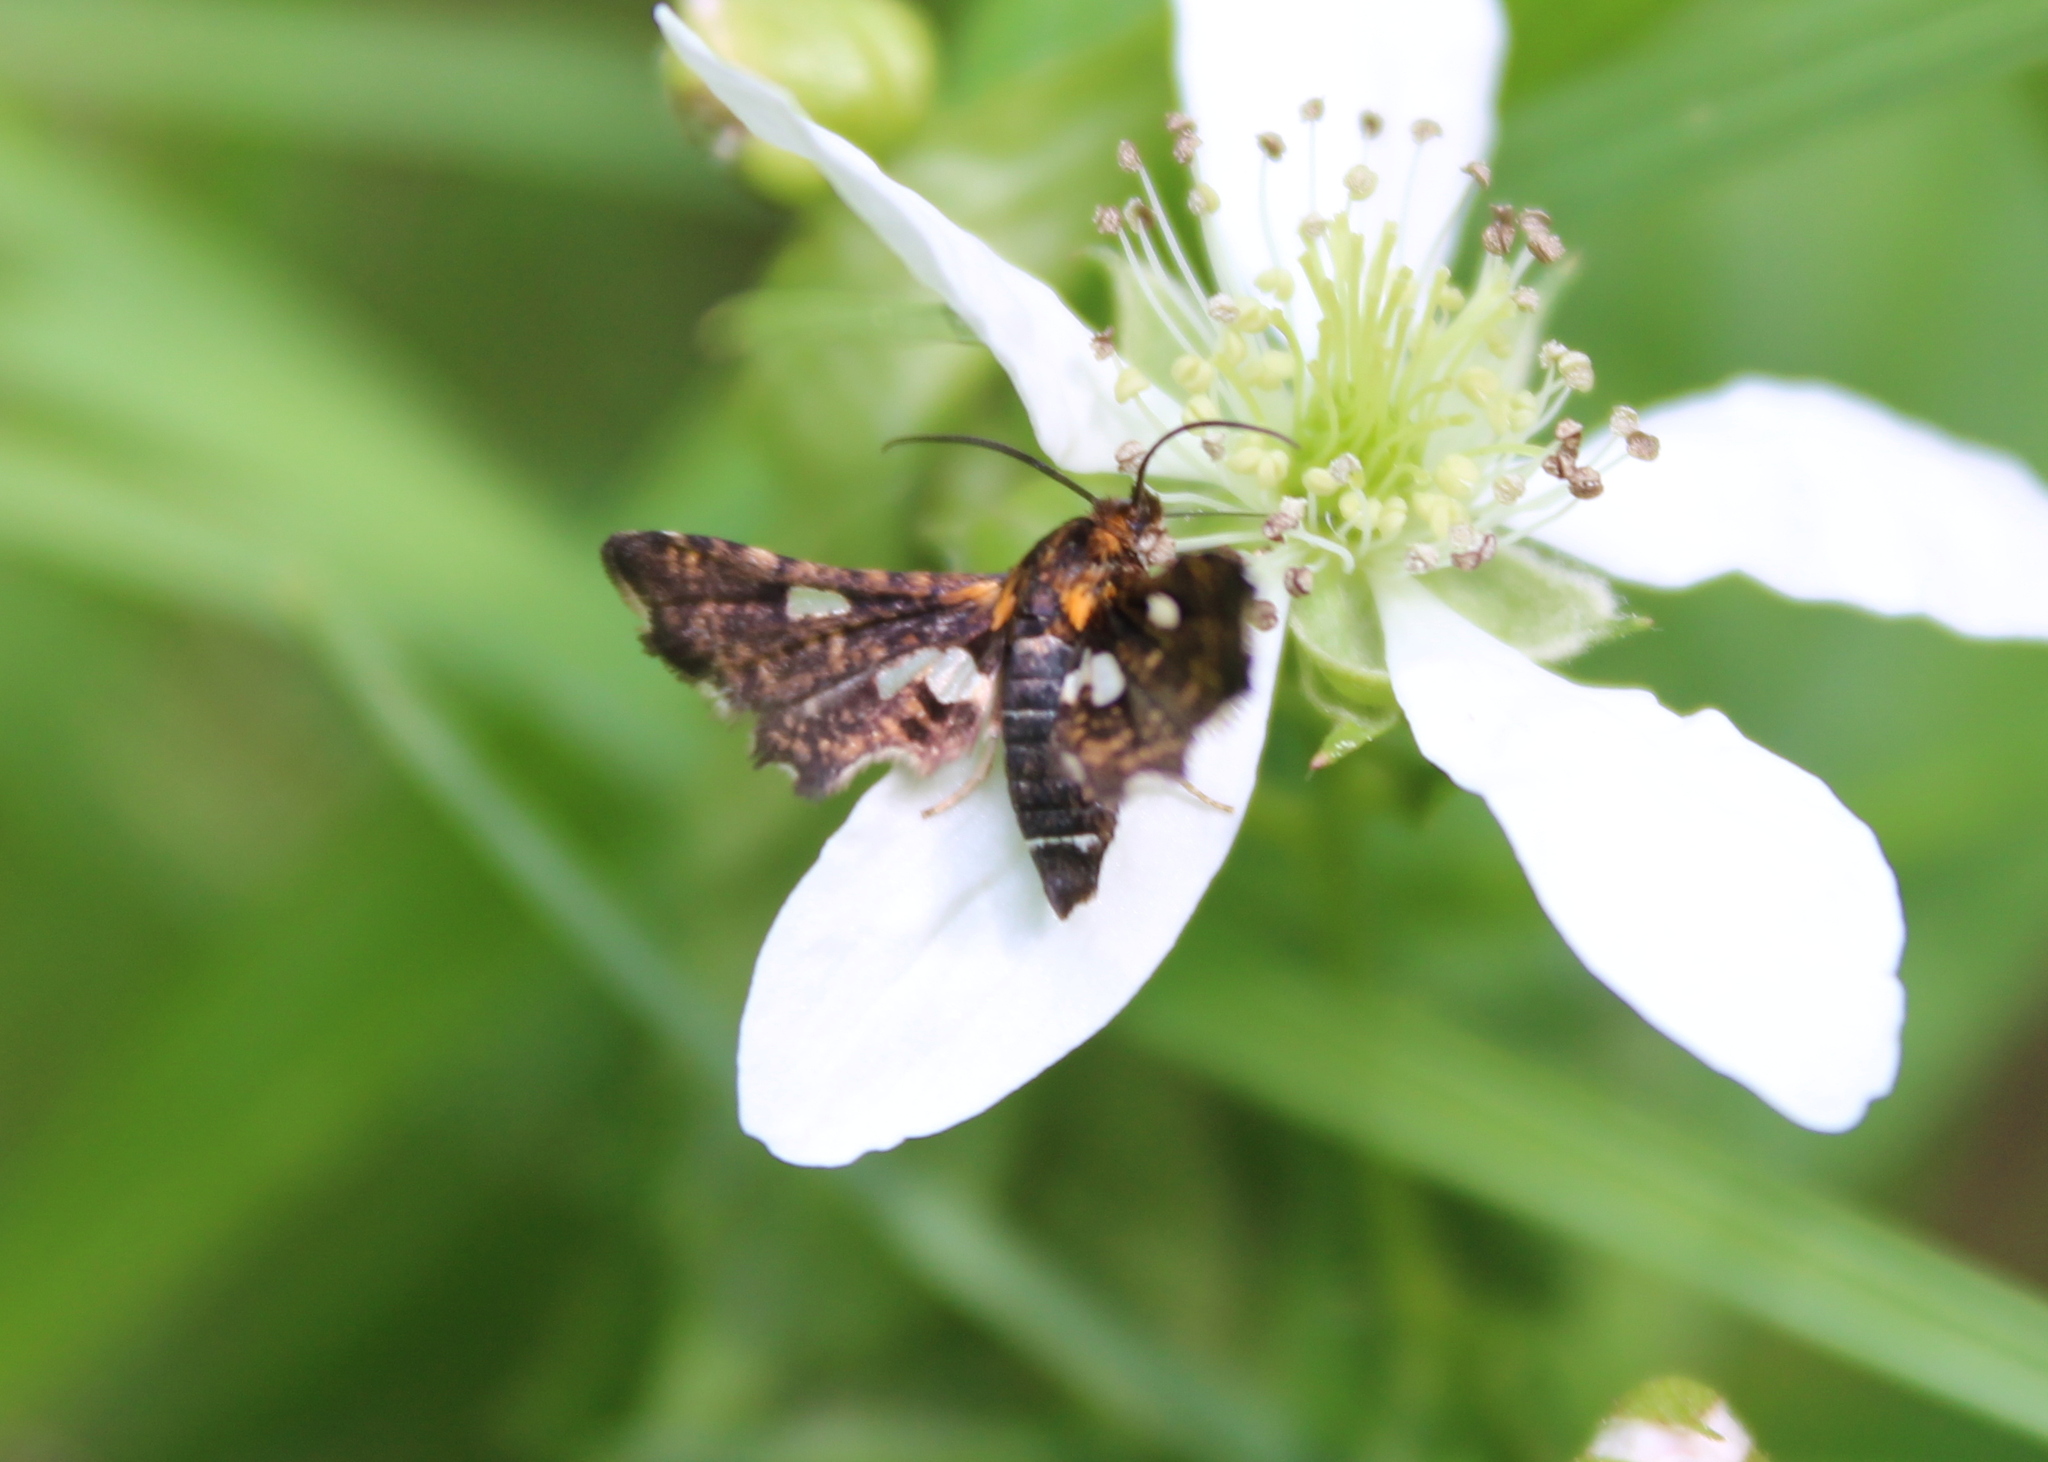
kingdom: Animalia
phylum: Arthropoda
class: Insecta
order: Lepidoptera
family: Thyrididae
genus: Thyris
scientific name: Thyris maculata
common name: Spotted thyris moth
